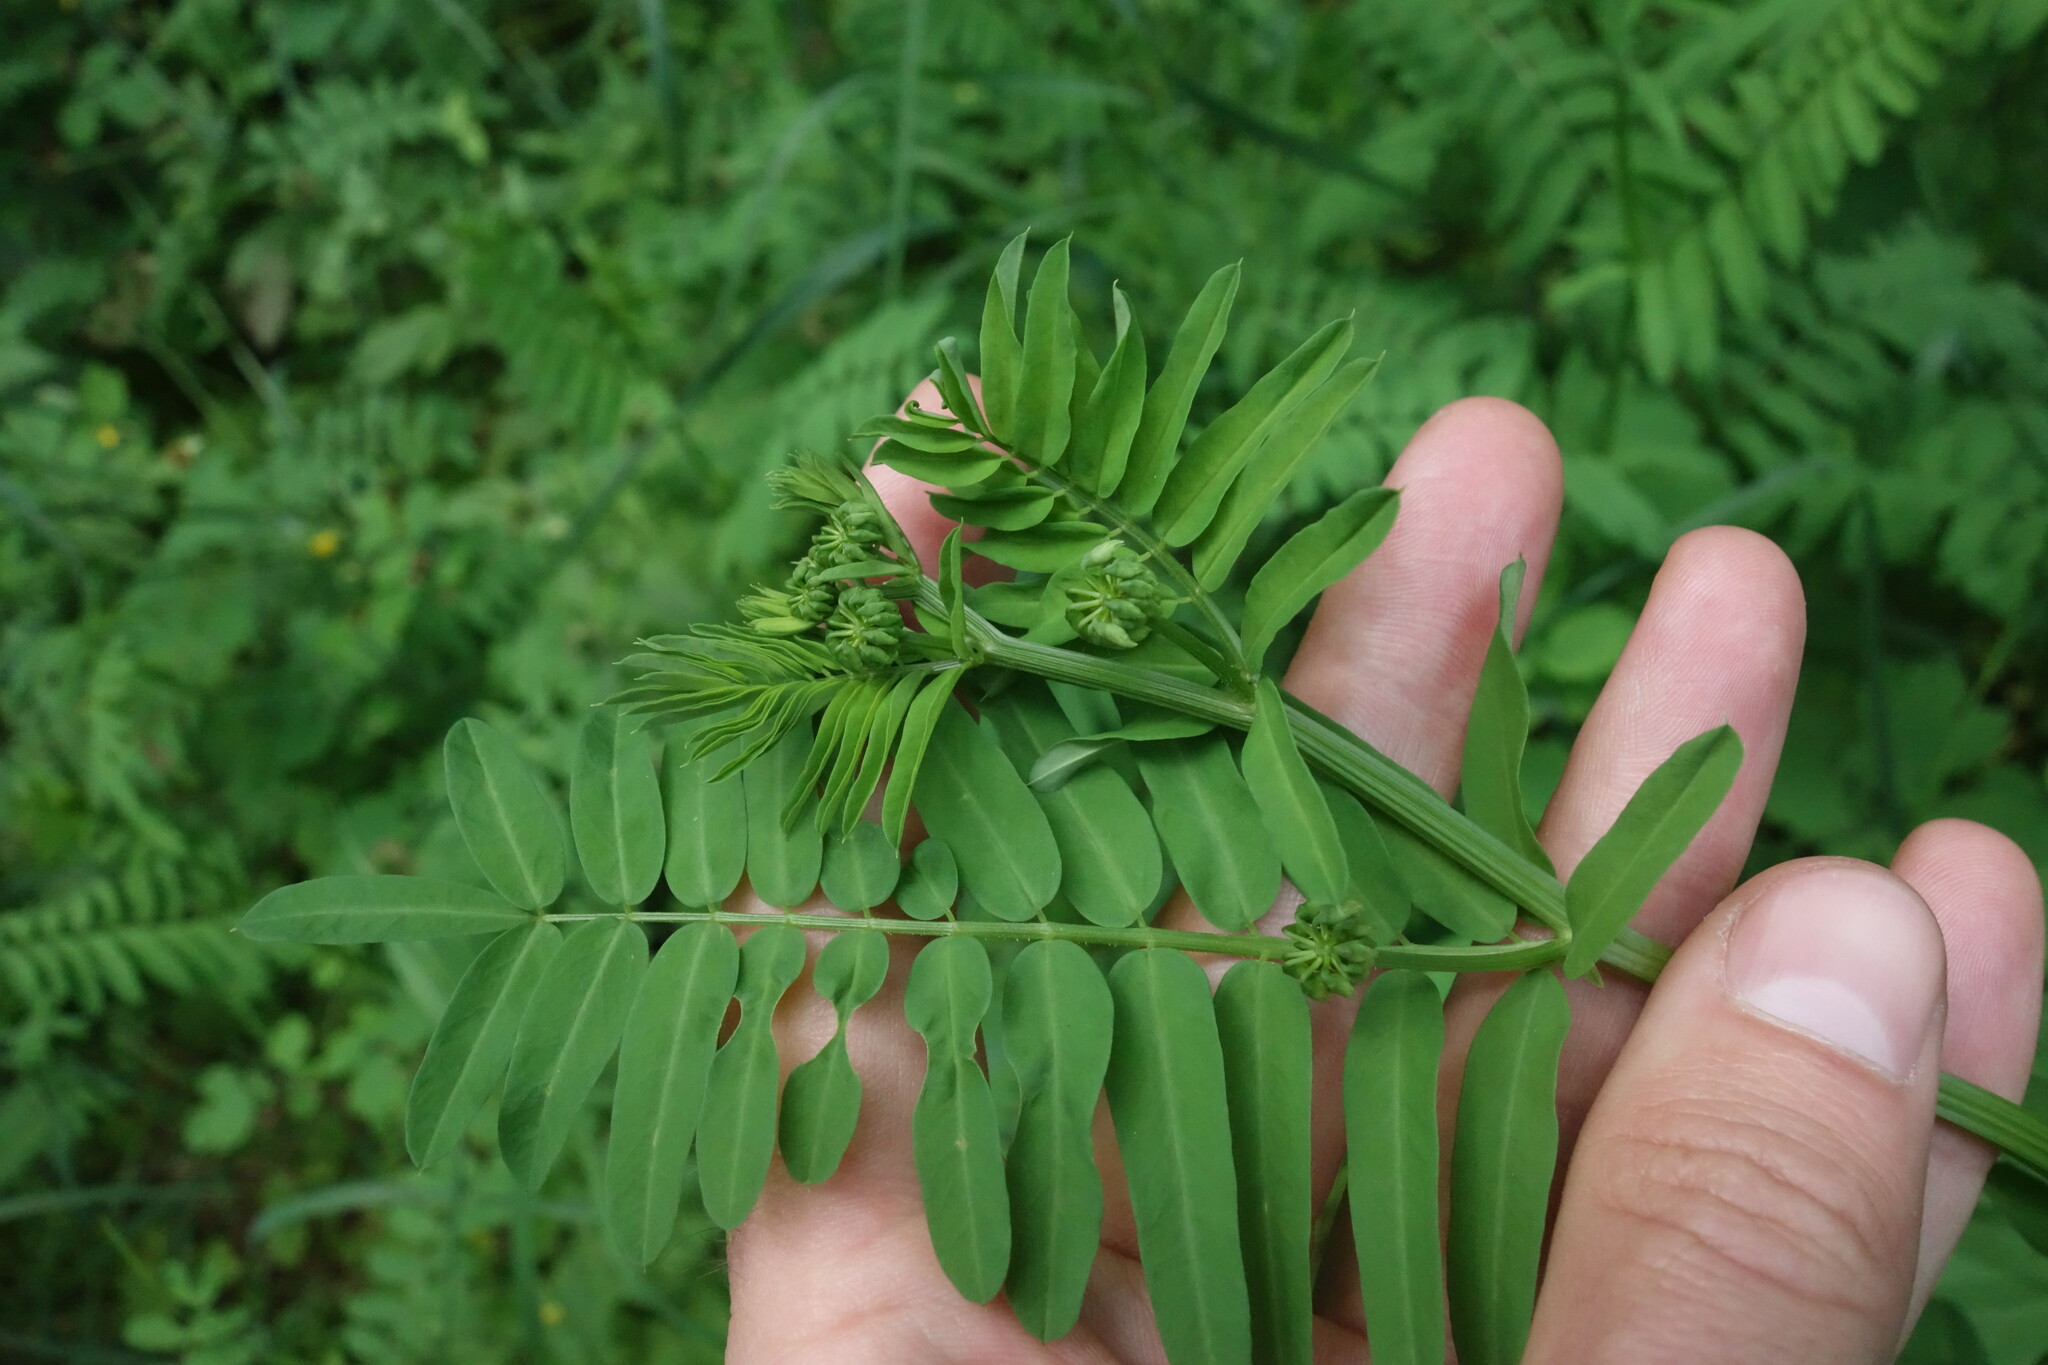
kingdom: Plantae
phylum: Tracheophyta
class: Magnoliopsida
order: Fabales
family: Fabaceae
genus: Coronilla
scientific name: Coronilla varia
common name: Crownvetch
